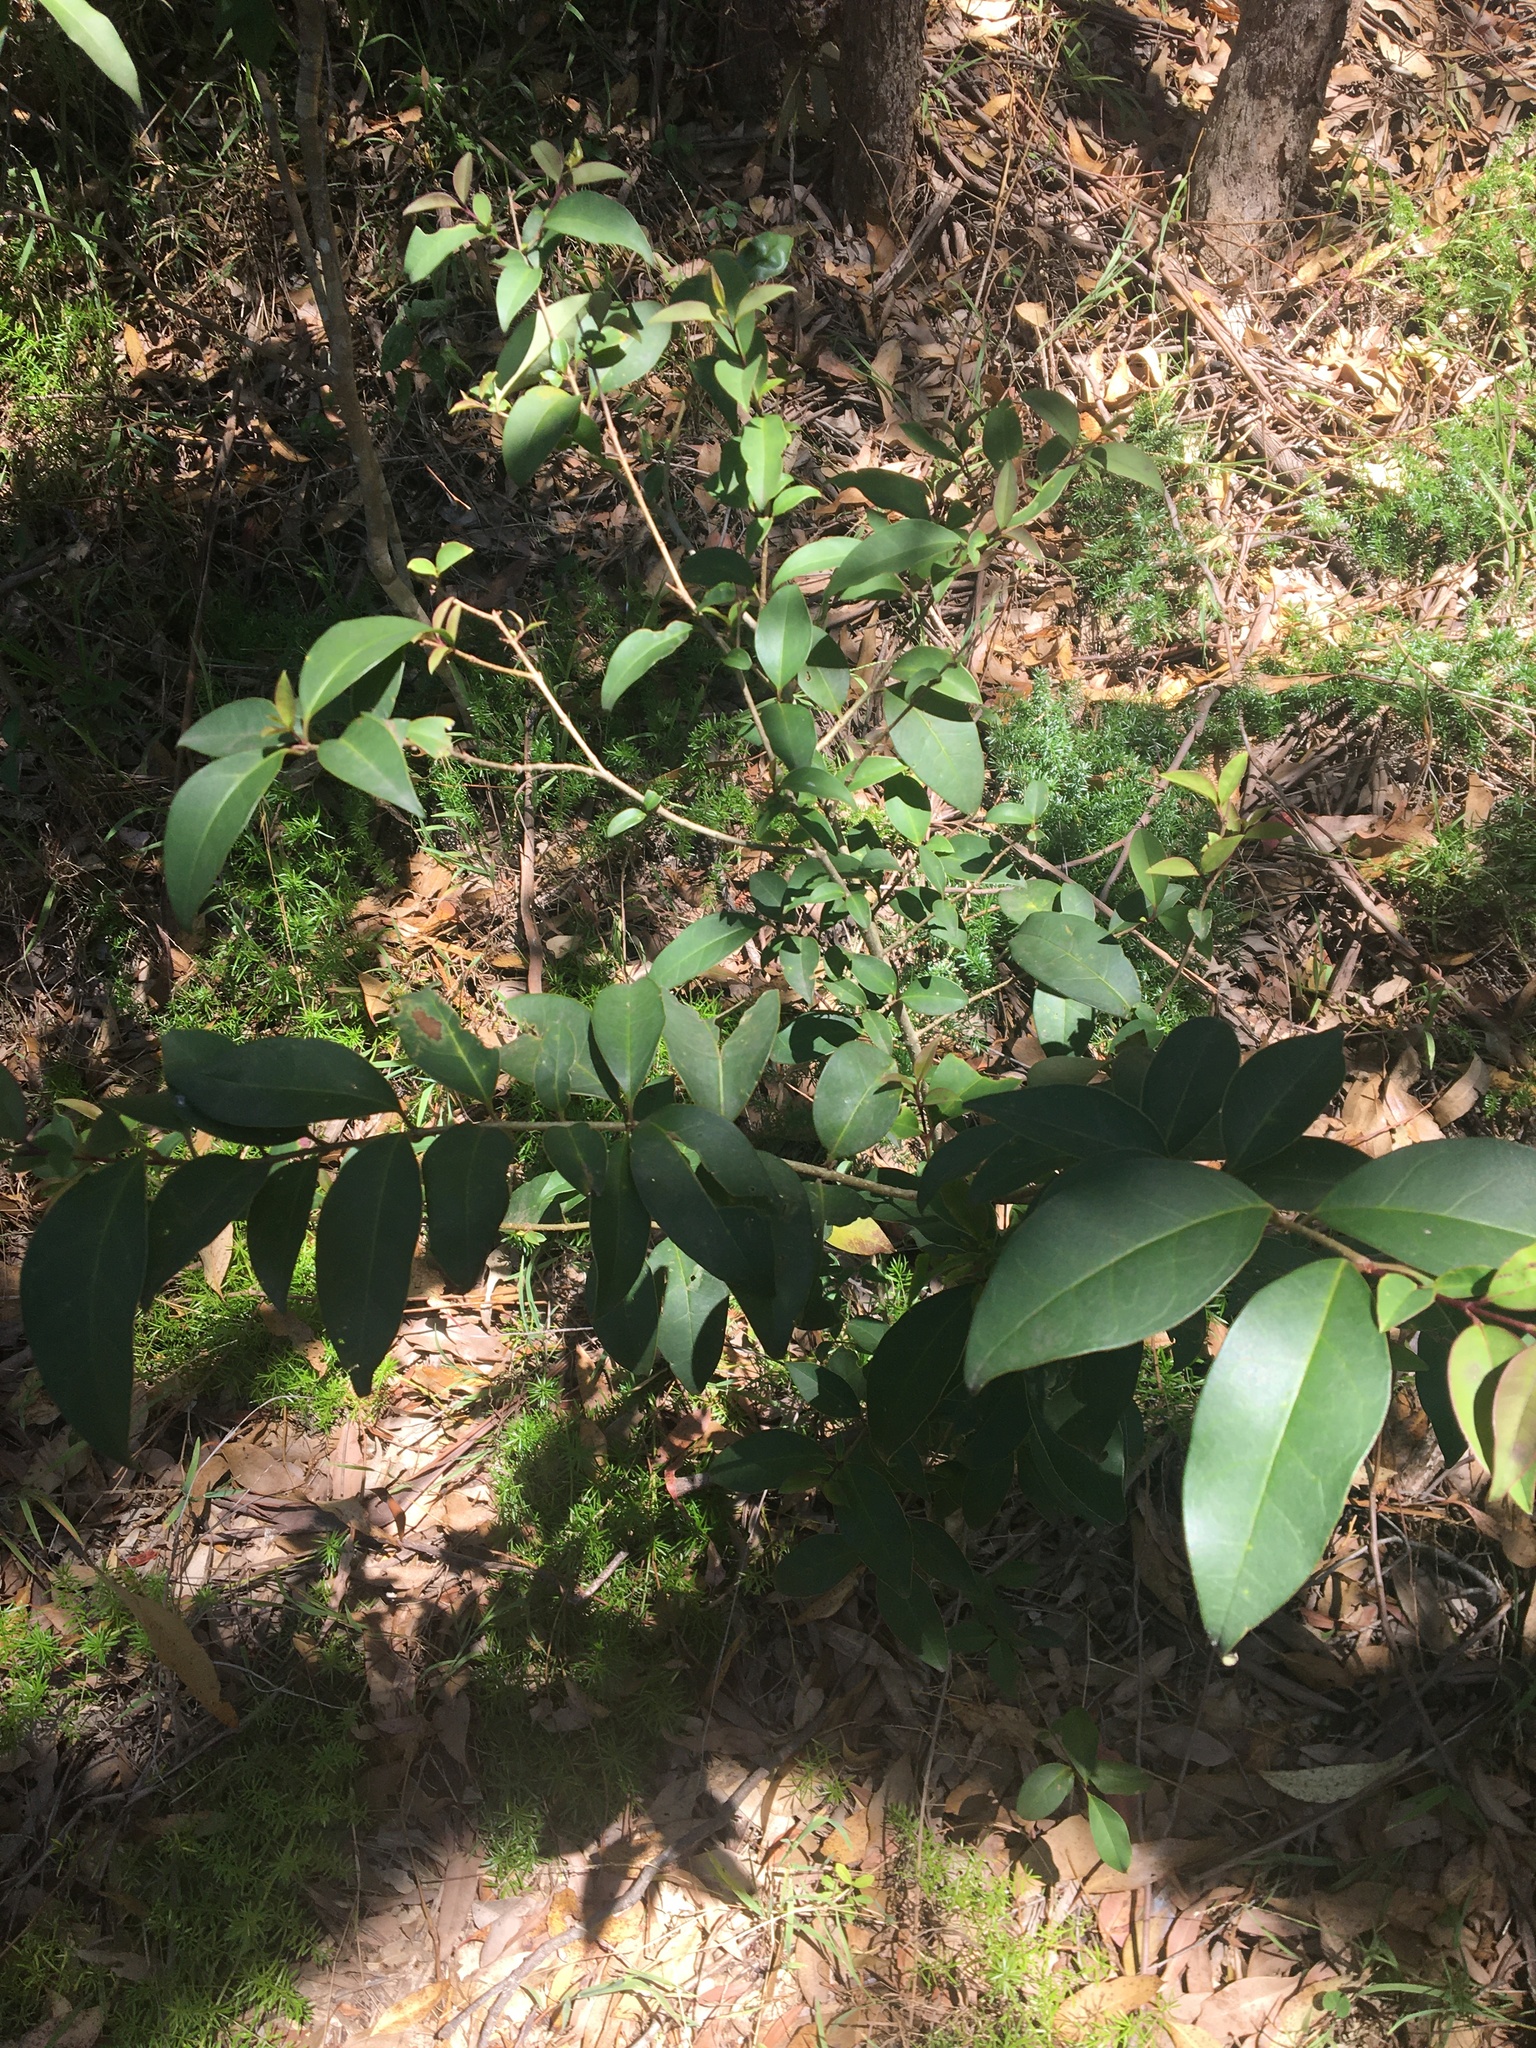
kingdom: Plantae
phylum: Tracheophyta
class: Magnoliopsida
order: Lamiales
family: Oleaceae
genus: Ligustrum
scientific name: Ligustrum lucidum
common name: Glossy privet
